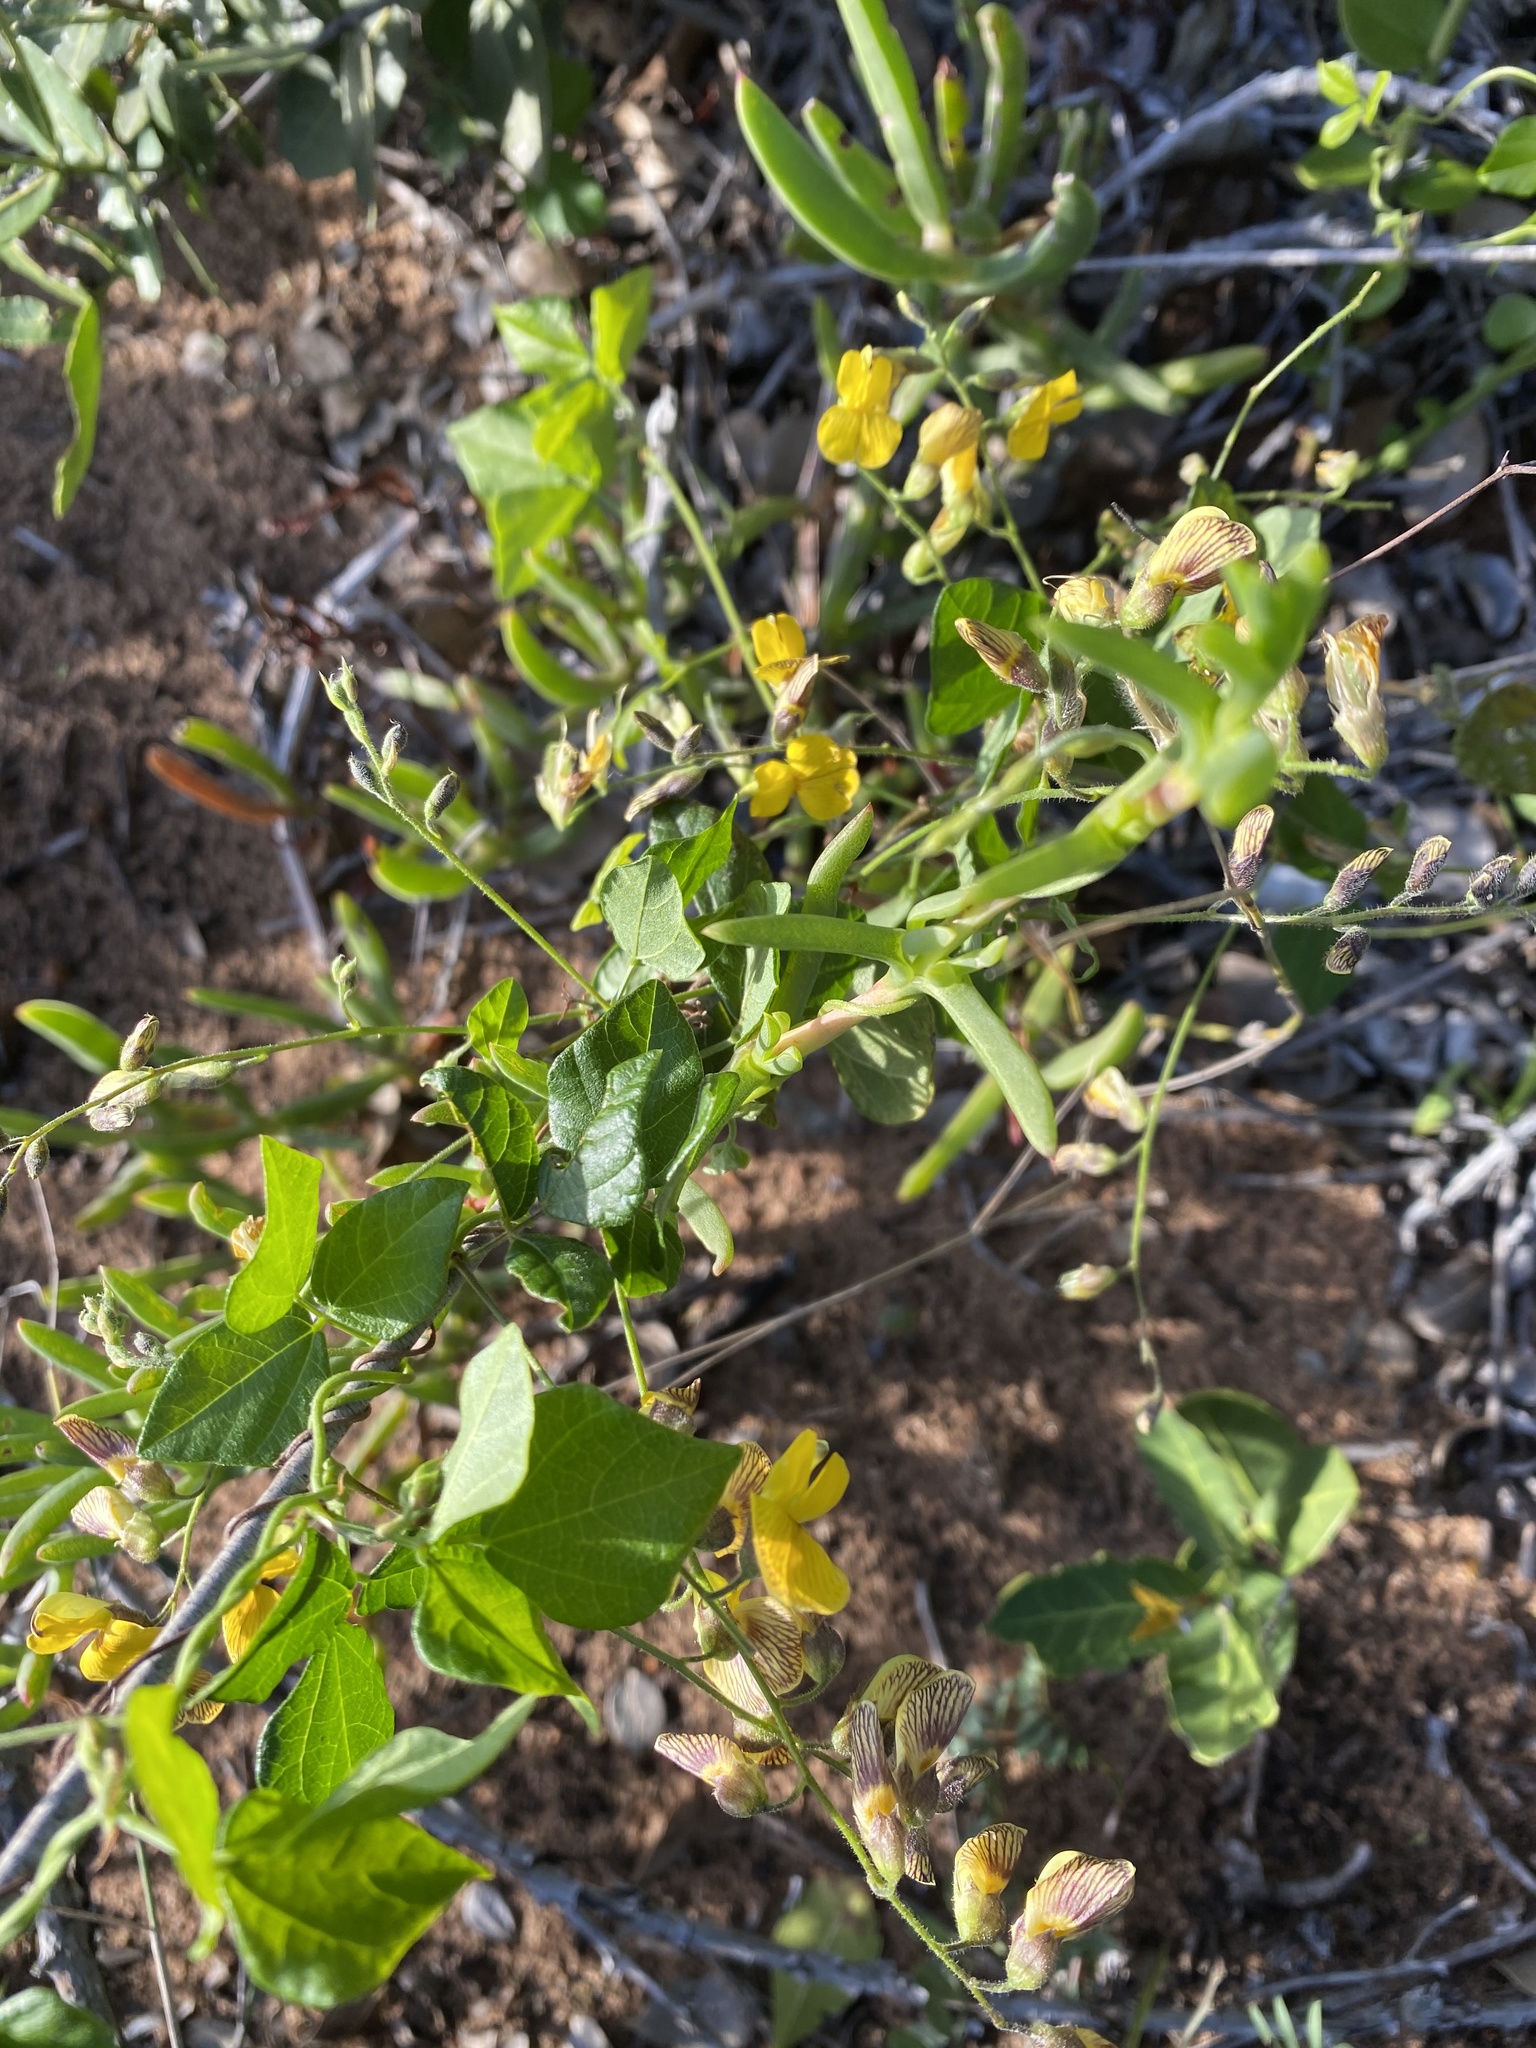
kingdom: Plantae
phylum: Tracheophyta
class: Magnoliopsida
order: Fabales
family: Fabaceae
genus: Rhynchosia
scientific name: Rhynchosia caribaea
